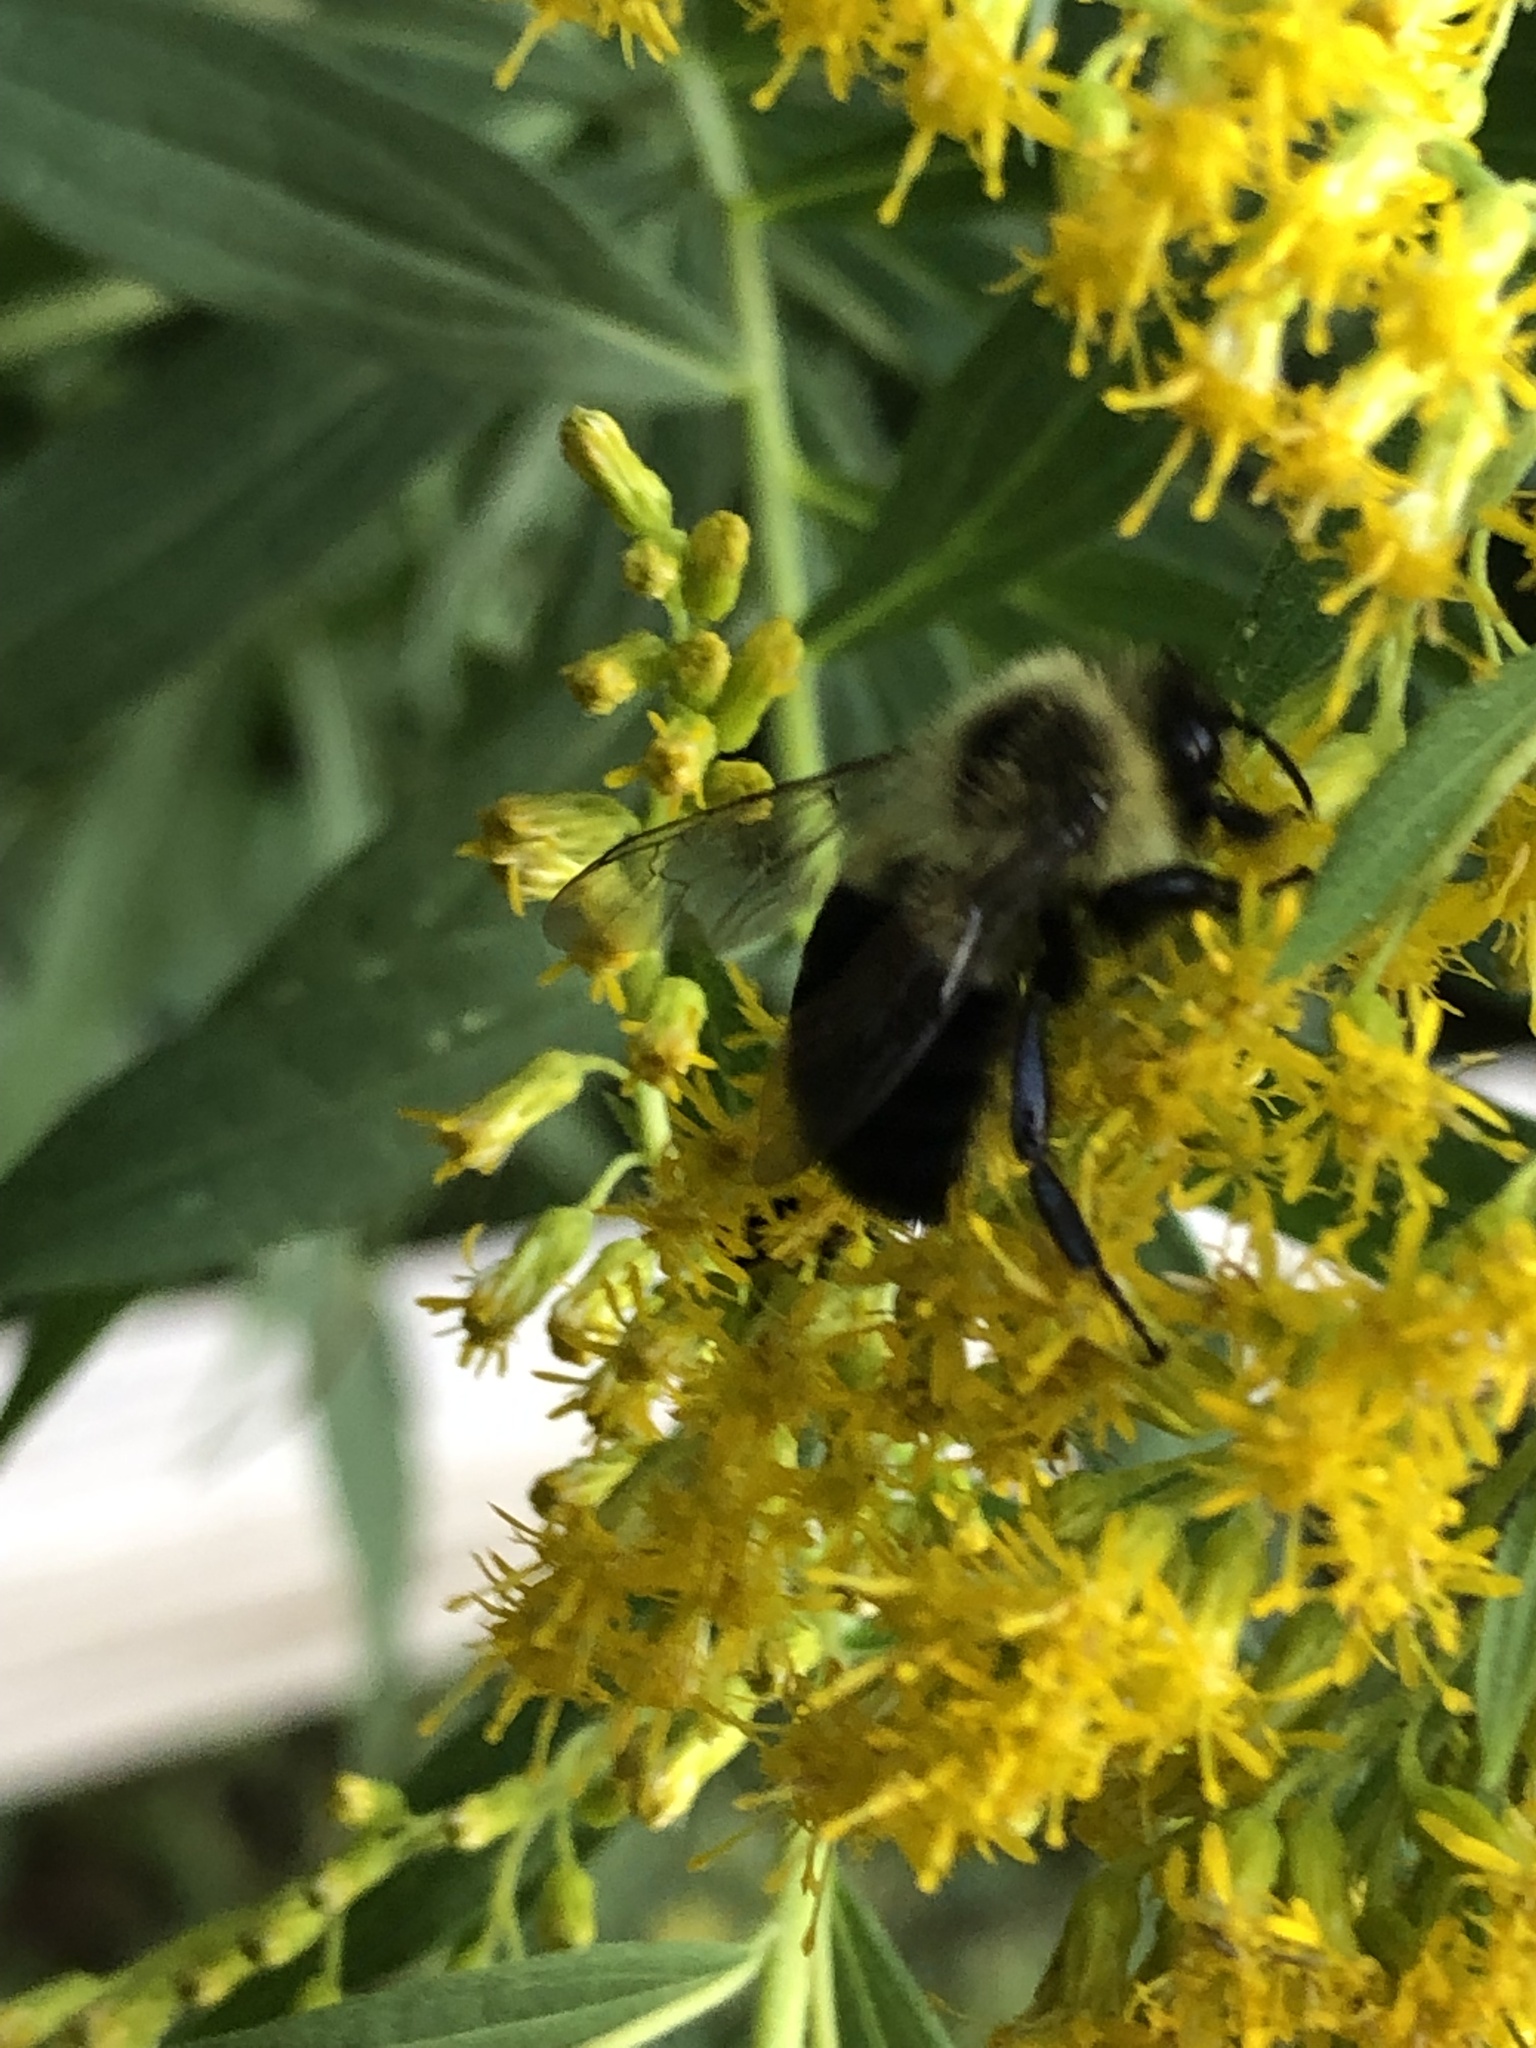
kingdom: Animalia
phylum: Arthropoda
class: Insecta
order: Hymenoptera
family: Apidae
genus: Bombus
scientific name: Bombus impatiens
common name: Common eastern bumble bee
